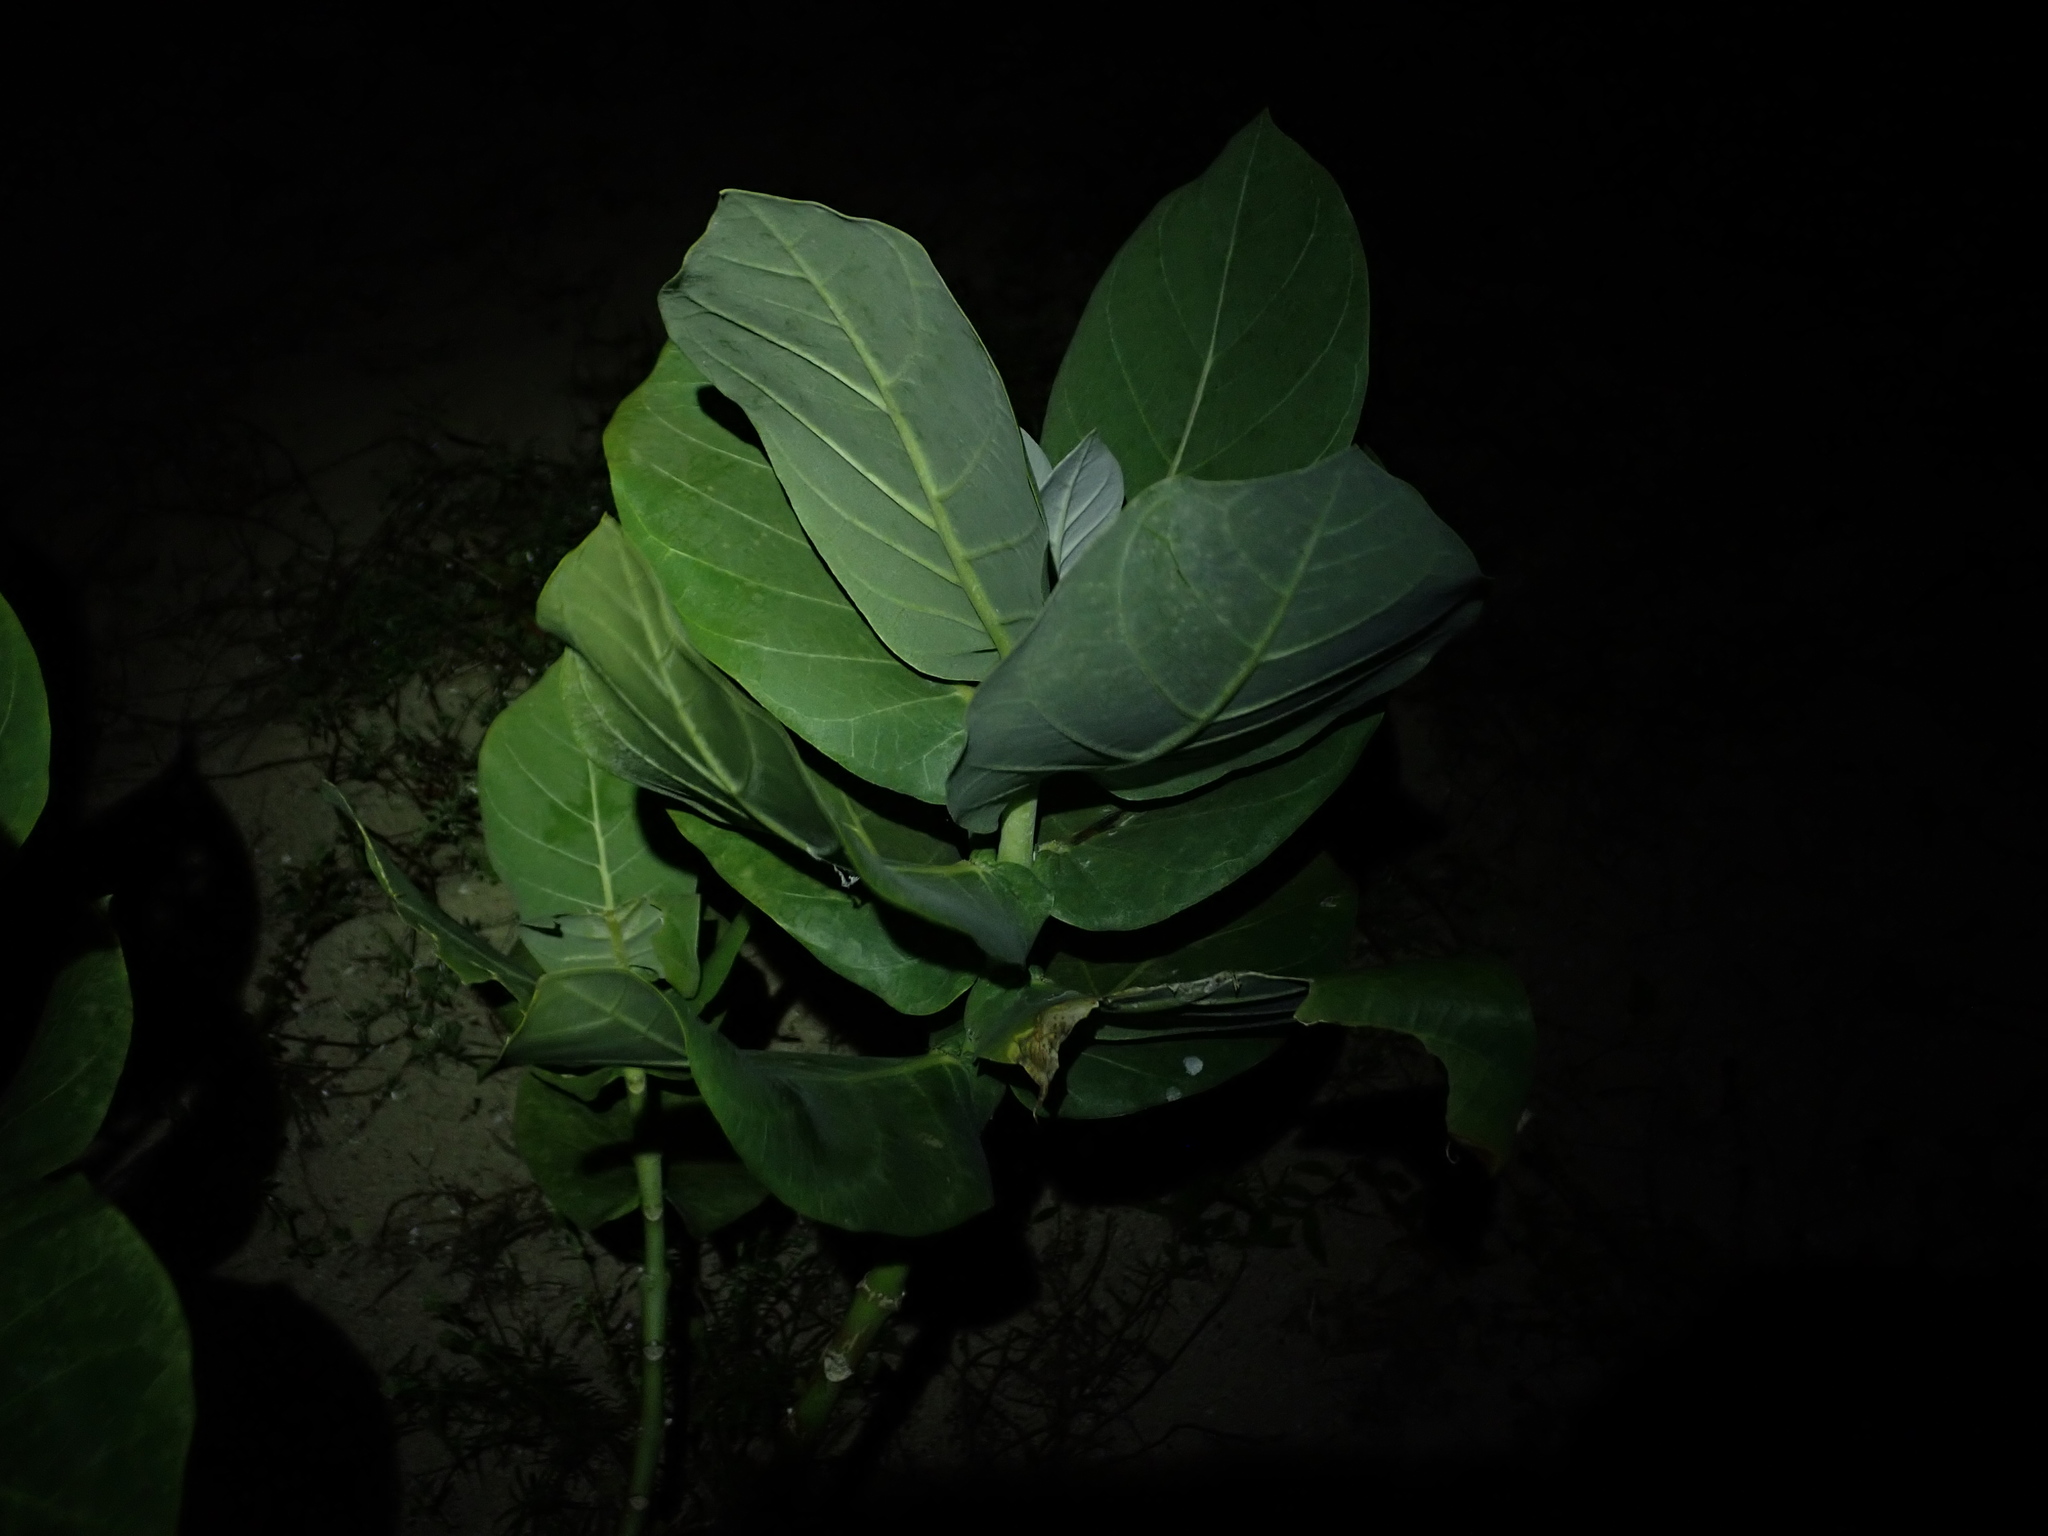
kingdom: Plantae
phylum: Tracheophyta
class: Magnoliopsida
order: Gentianales
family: Apocynaceae
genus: Calotropis
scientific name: Calotropis procera
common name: Roostertree
